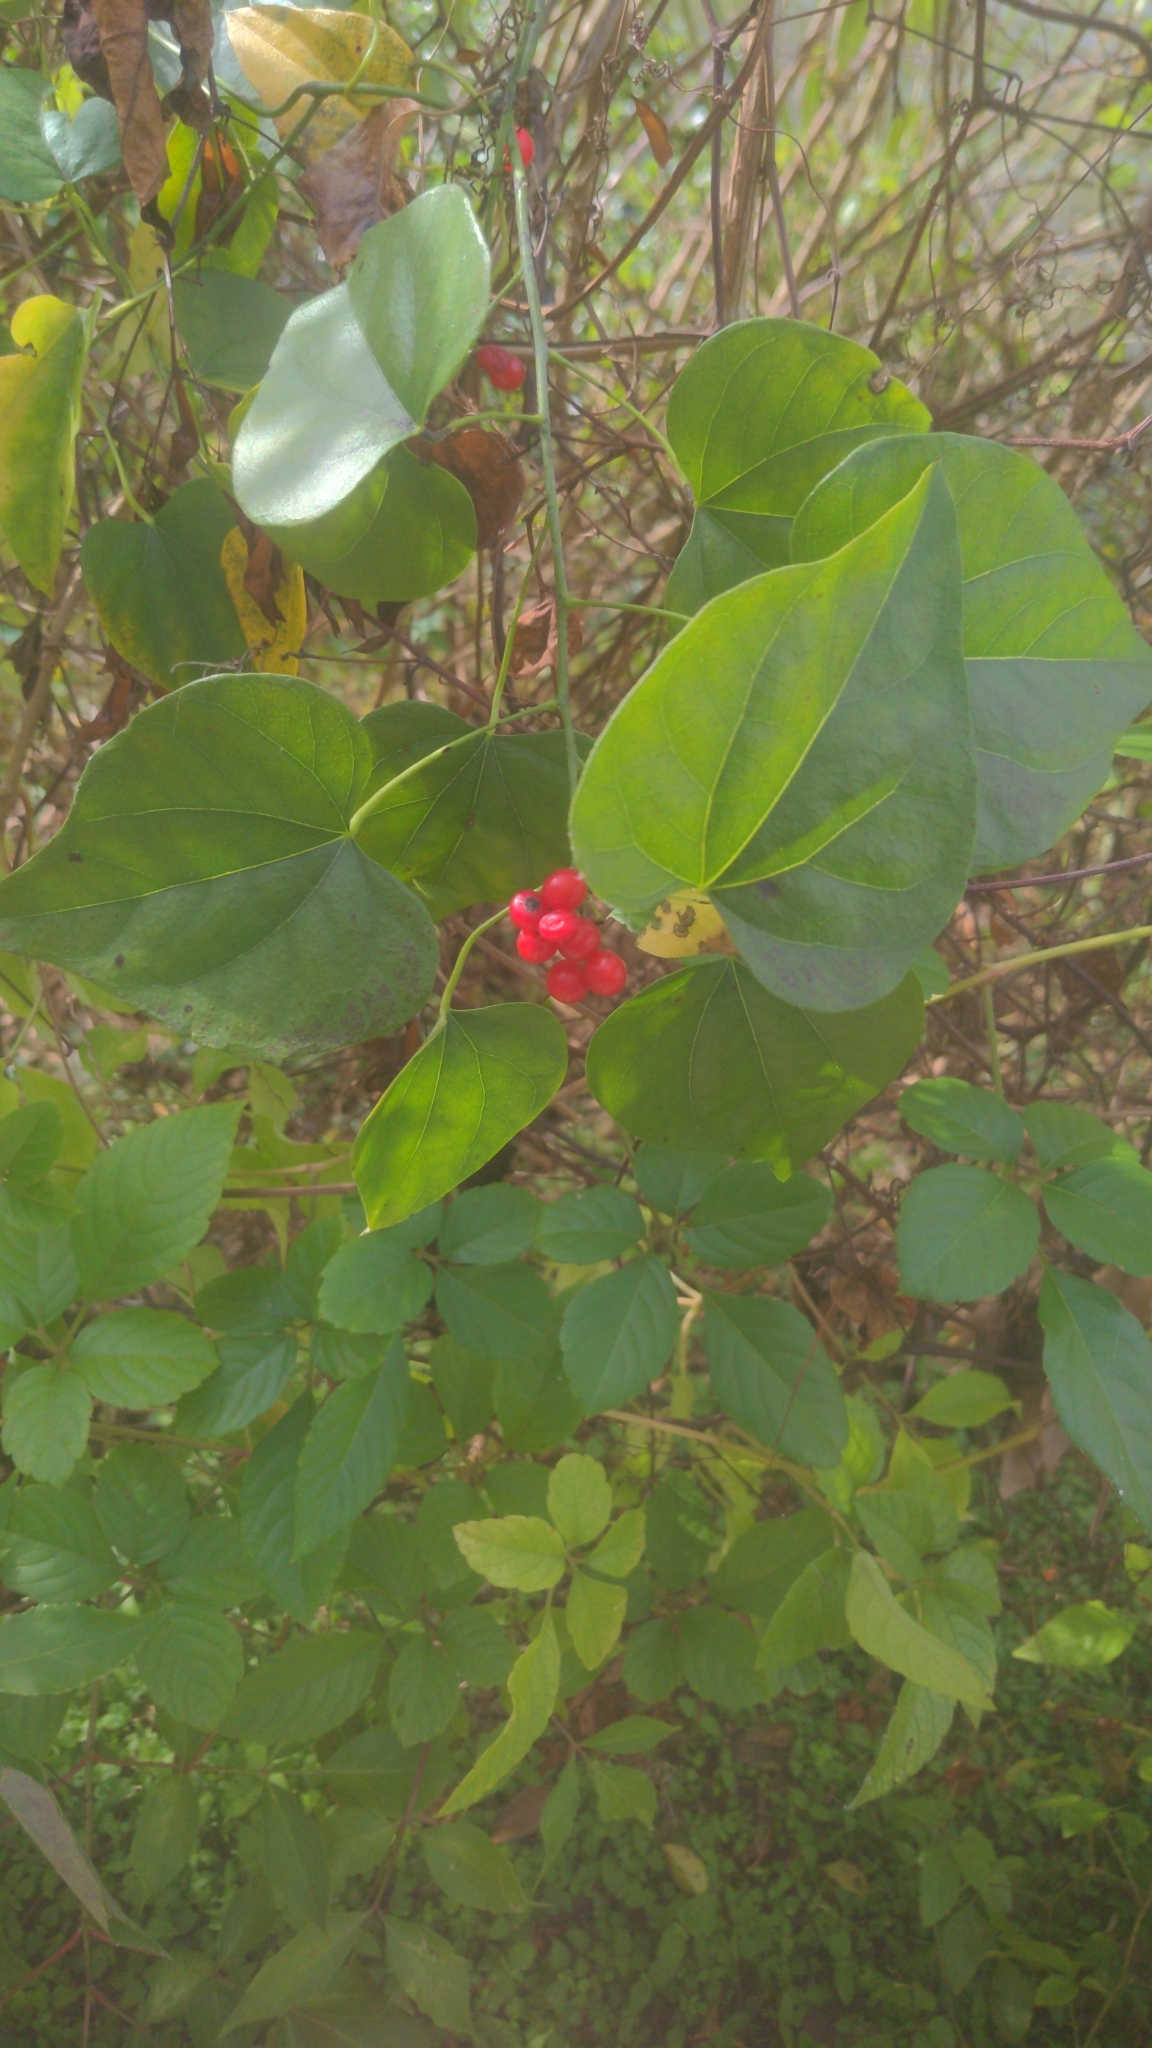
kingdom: Plantae
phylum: Tracheophyta
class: Magnoliopsida
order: Ranunculales
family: Menispermaceae
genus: Cocculus
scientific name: Cocculus carolinus
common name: Carolina moonseed
